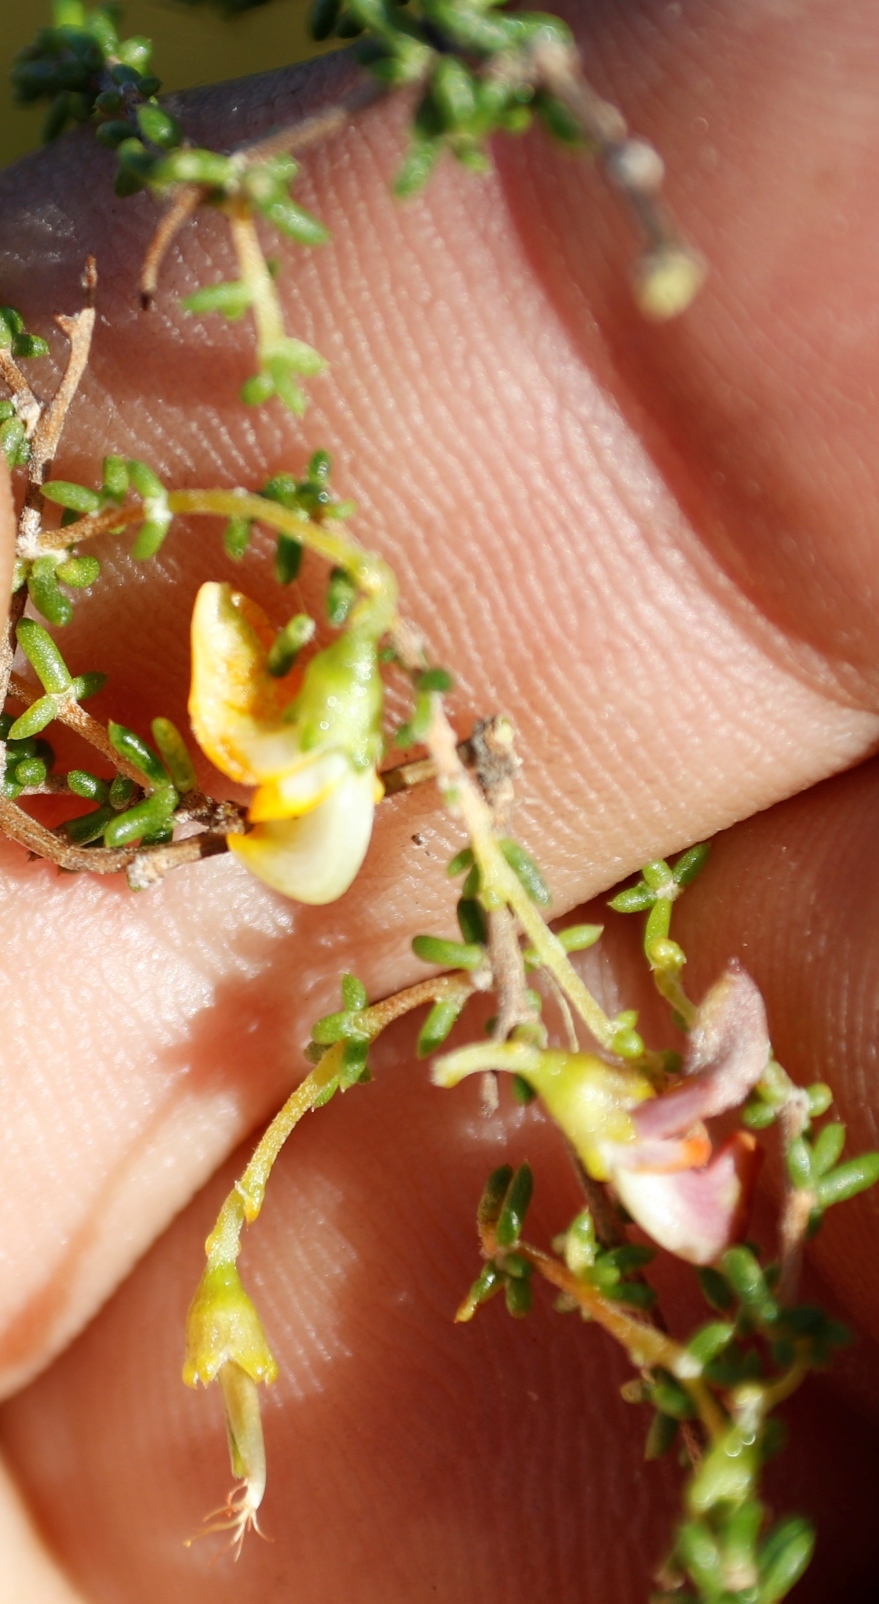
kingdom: Plantae
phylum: Tracheophyta
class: Magnoliopsida
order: Fabales
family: Fabaceae
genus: Aspalathus
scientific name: Aspalathus divaricata
